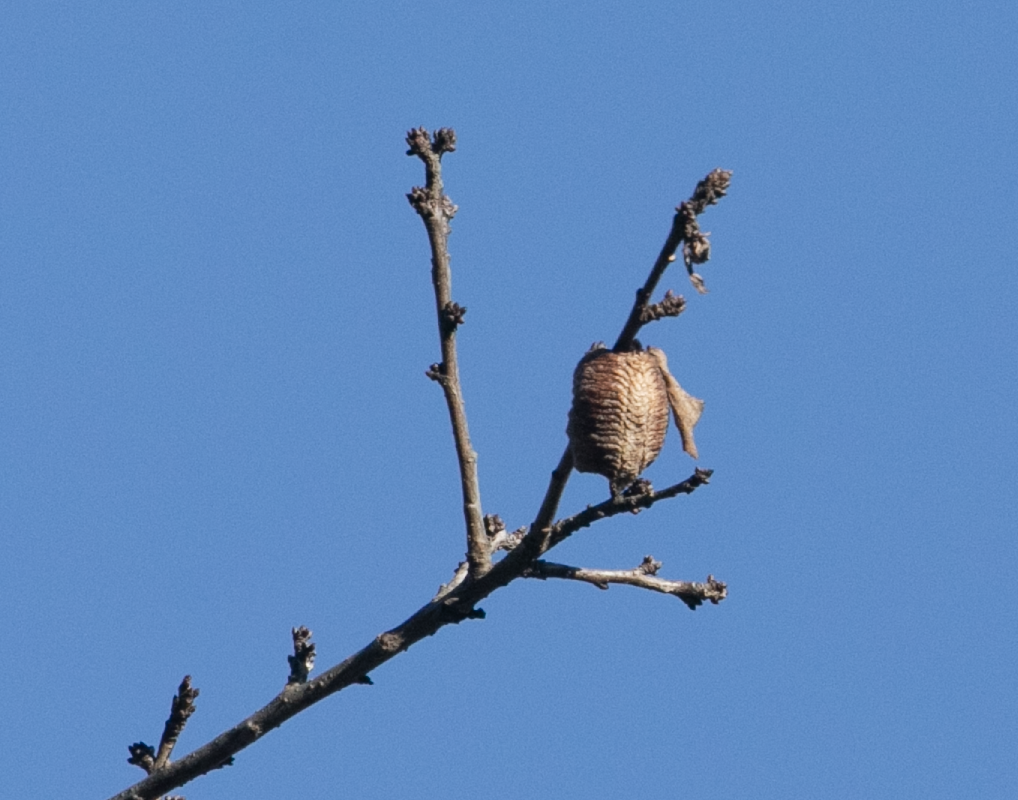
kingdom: Animalia
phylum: Arthropoda
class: Insecta
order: Mantodea
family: Mantidae
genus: Hierodula
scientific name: Hierodula transcaucasica
